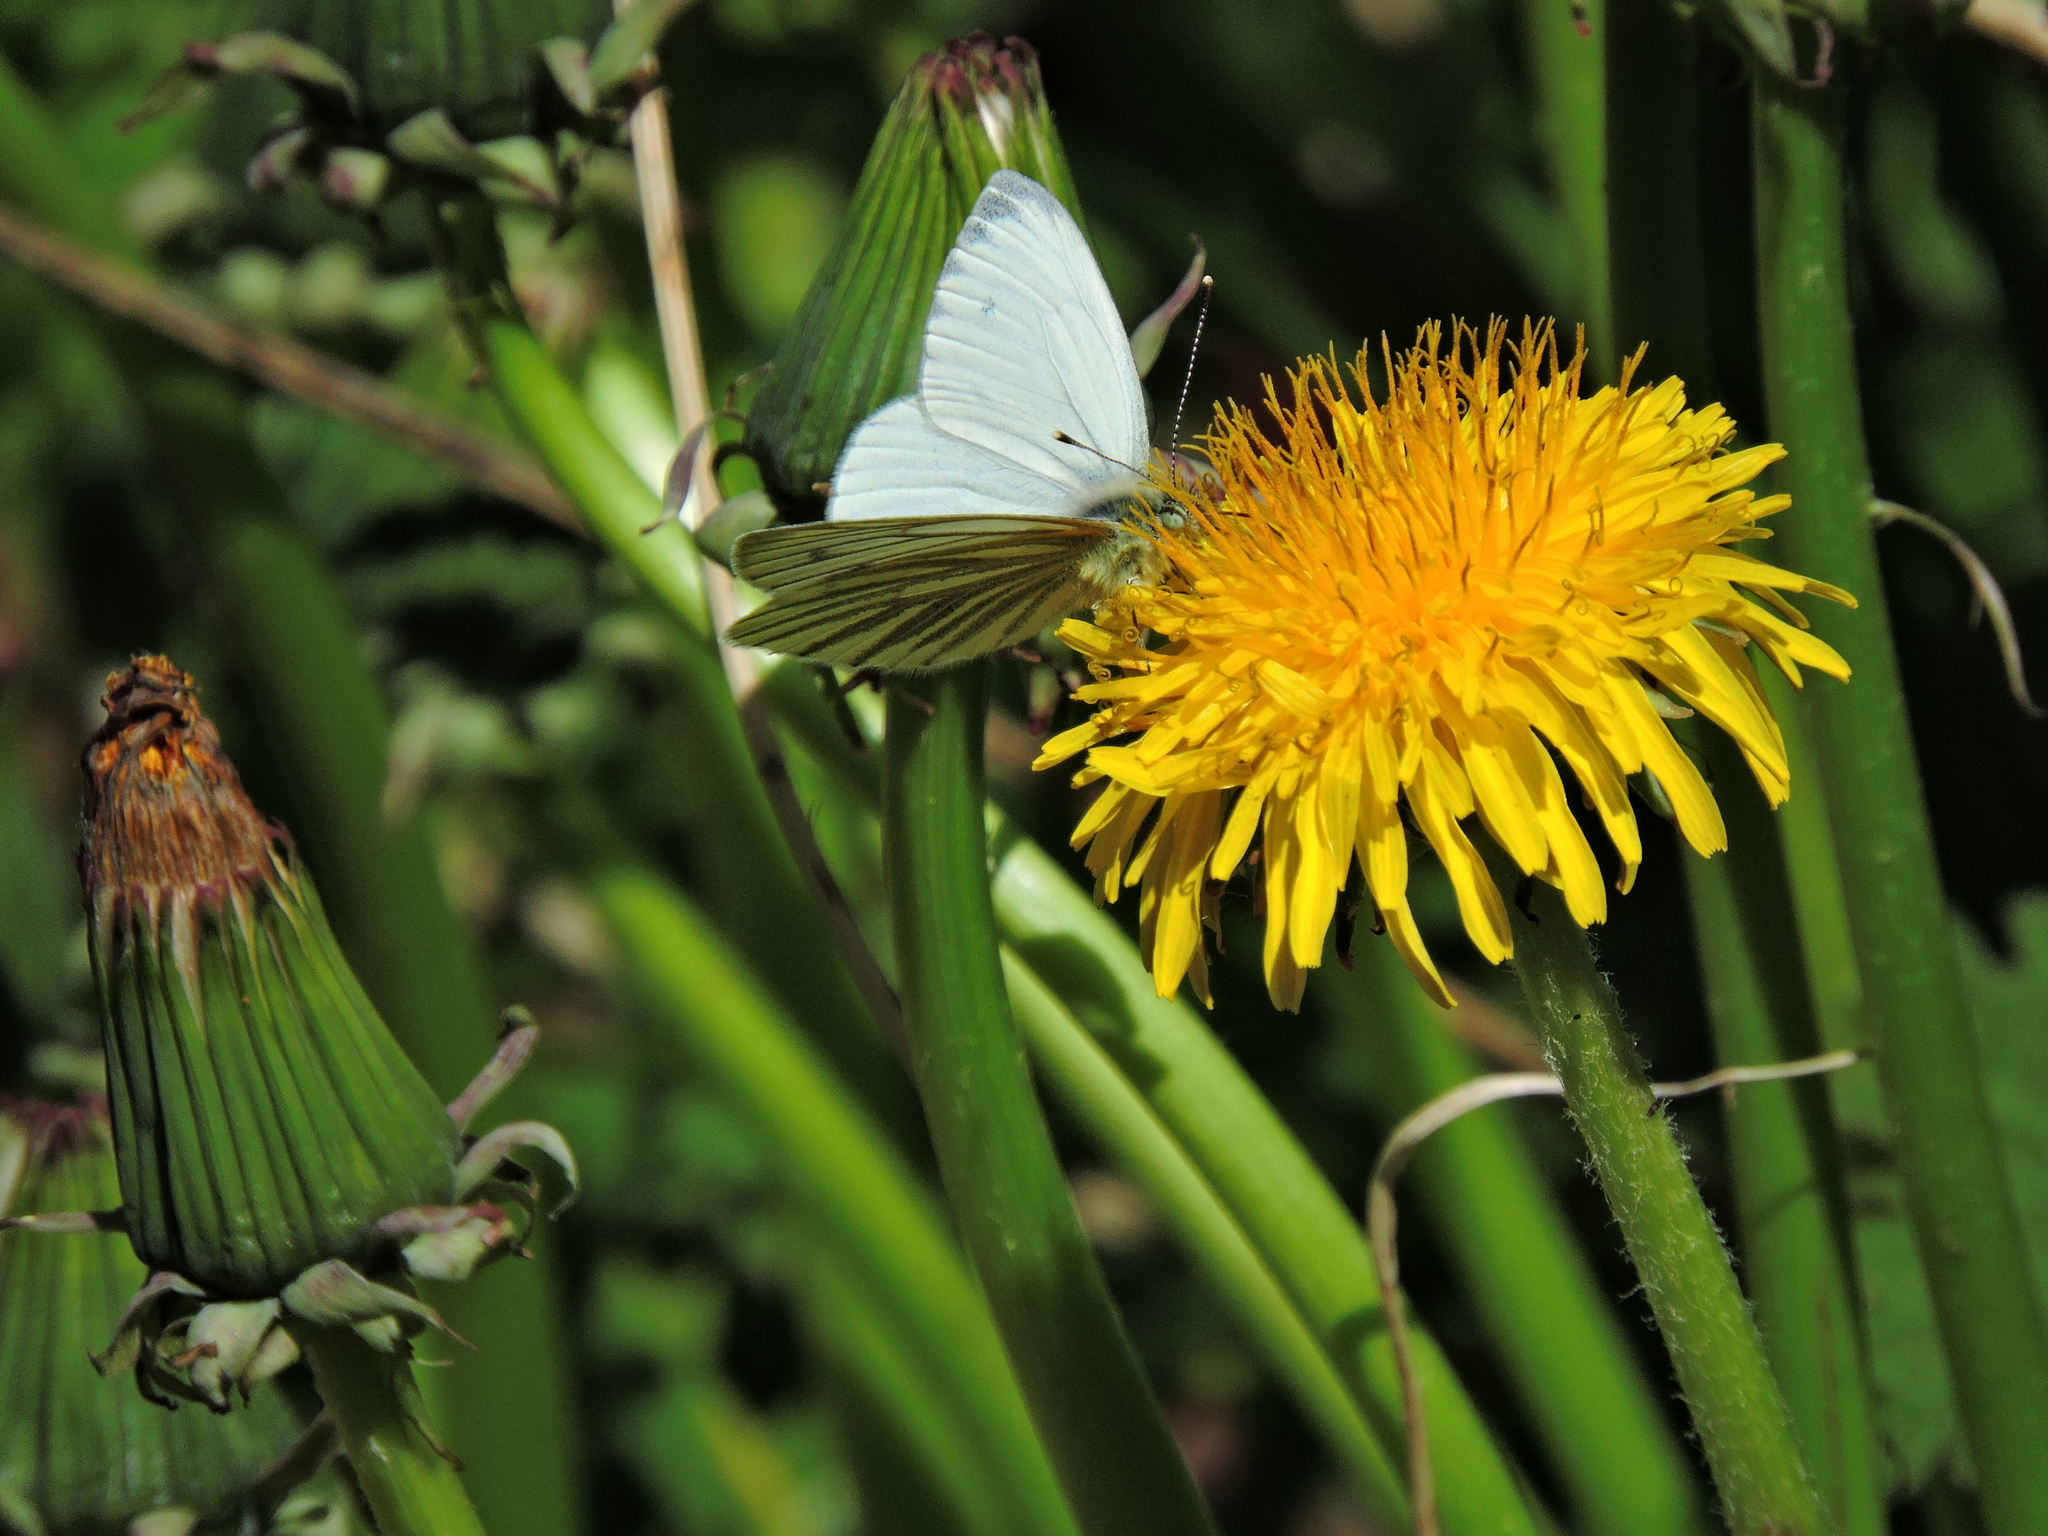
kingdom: Animalia
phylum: Arthropoda
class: Insecta
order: Lepidoptera
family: Pieridae
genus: Pieris
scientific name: Pieris napi
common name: Green-veined white
